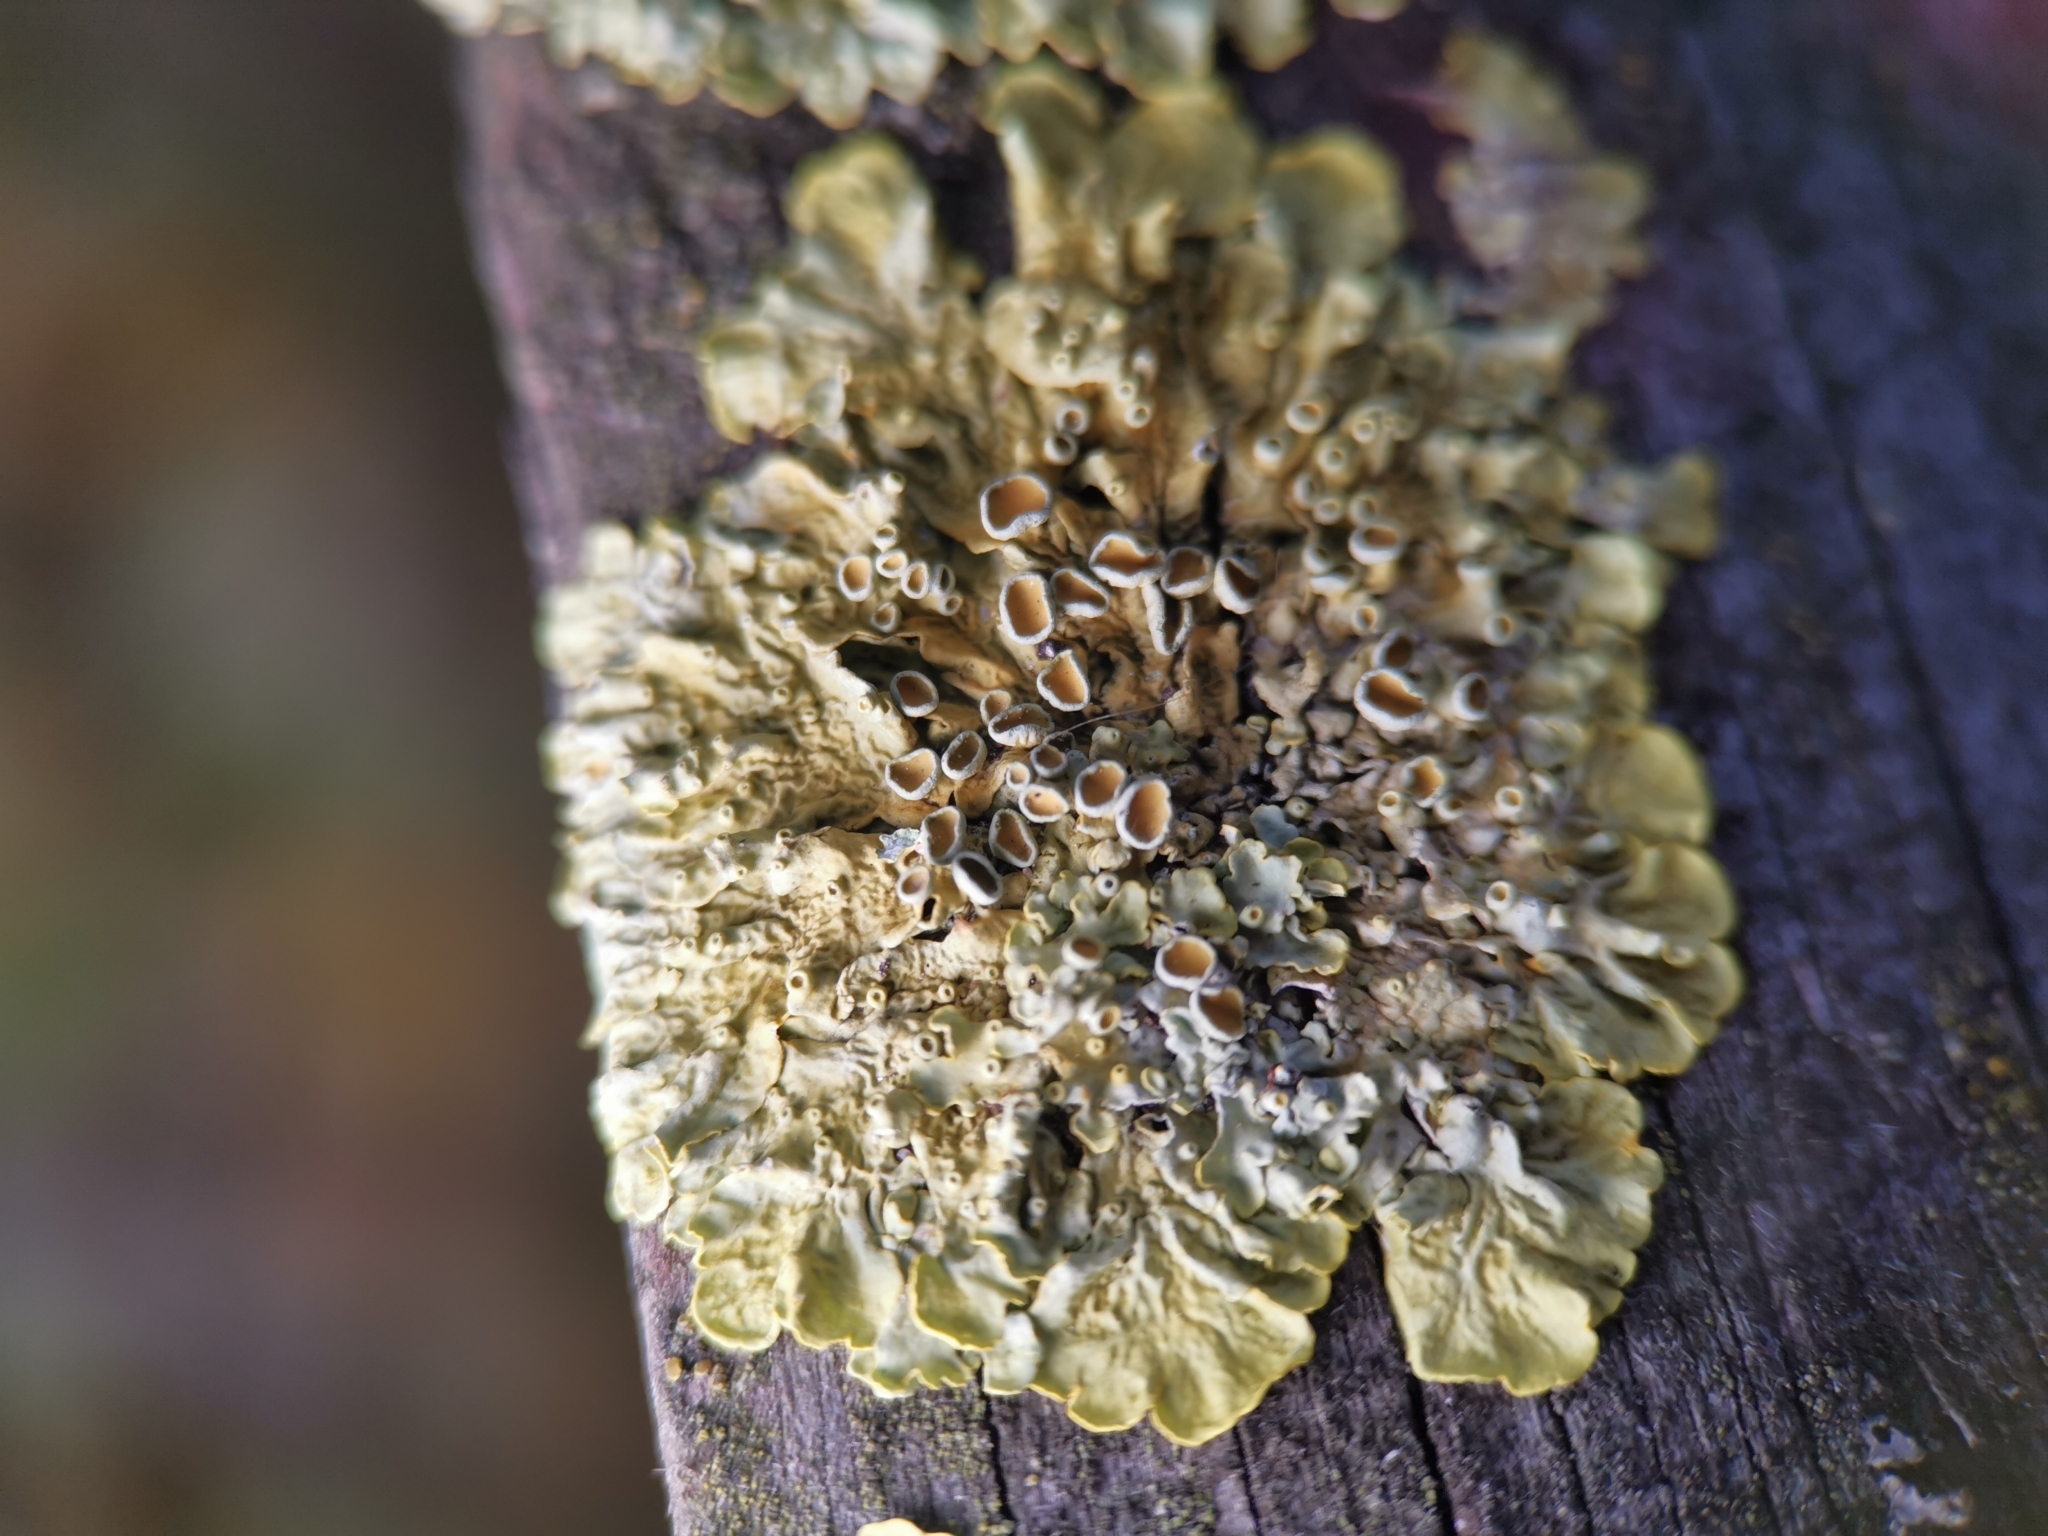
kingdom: Fungi
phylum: Ascomycota
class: Lecanoromycetes
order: Teloschistales
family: Teloschistaceae
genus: Xanthoria
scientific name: Xanthoria parietina
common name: Common orange lichen
